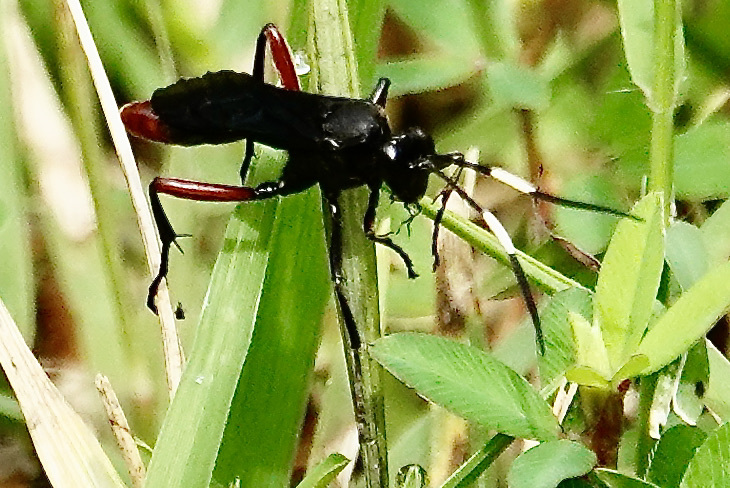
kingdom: Animalia
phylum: Arthropoda
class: Insecta
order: Hymenoptera
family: Ichneumonidae
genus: Limonethe
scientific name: Limonethe maurator
